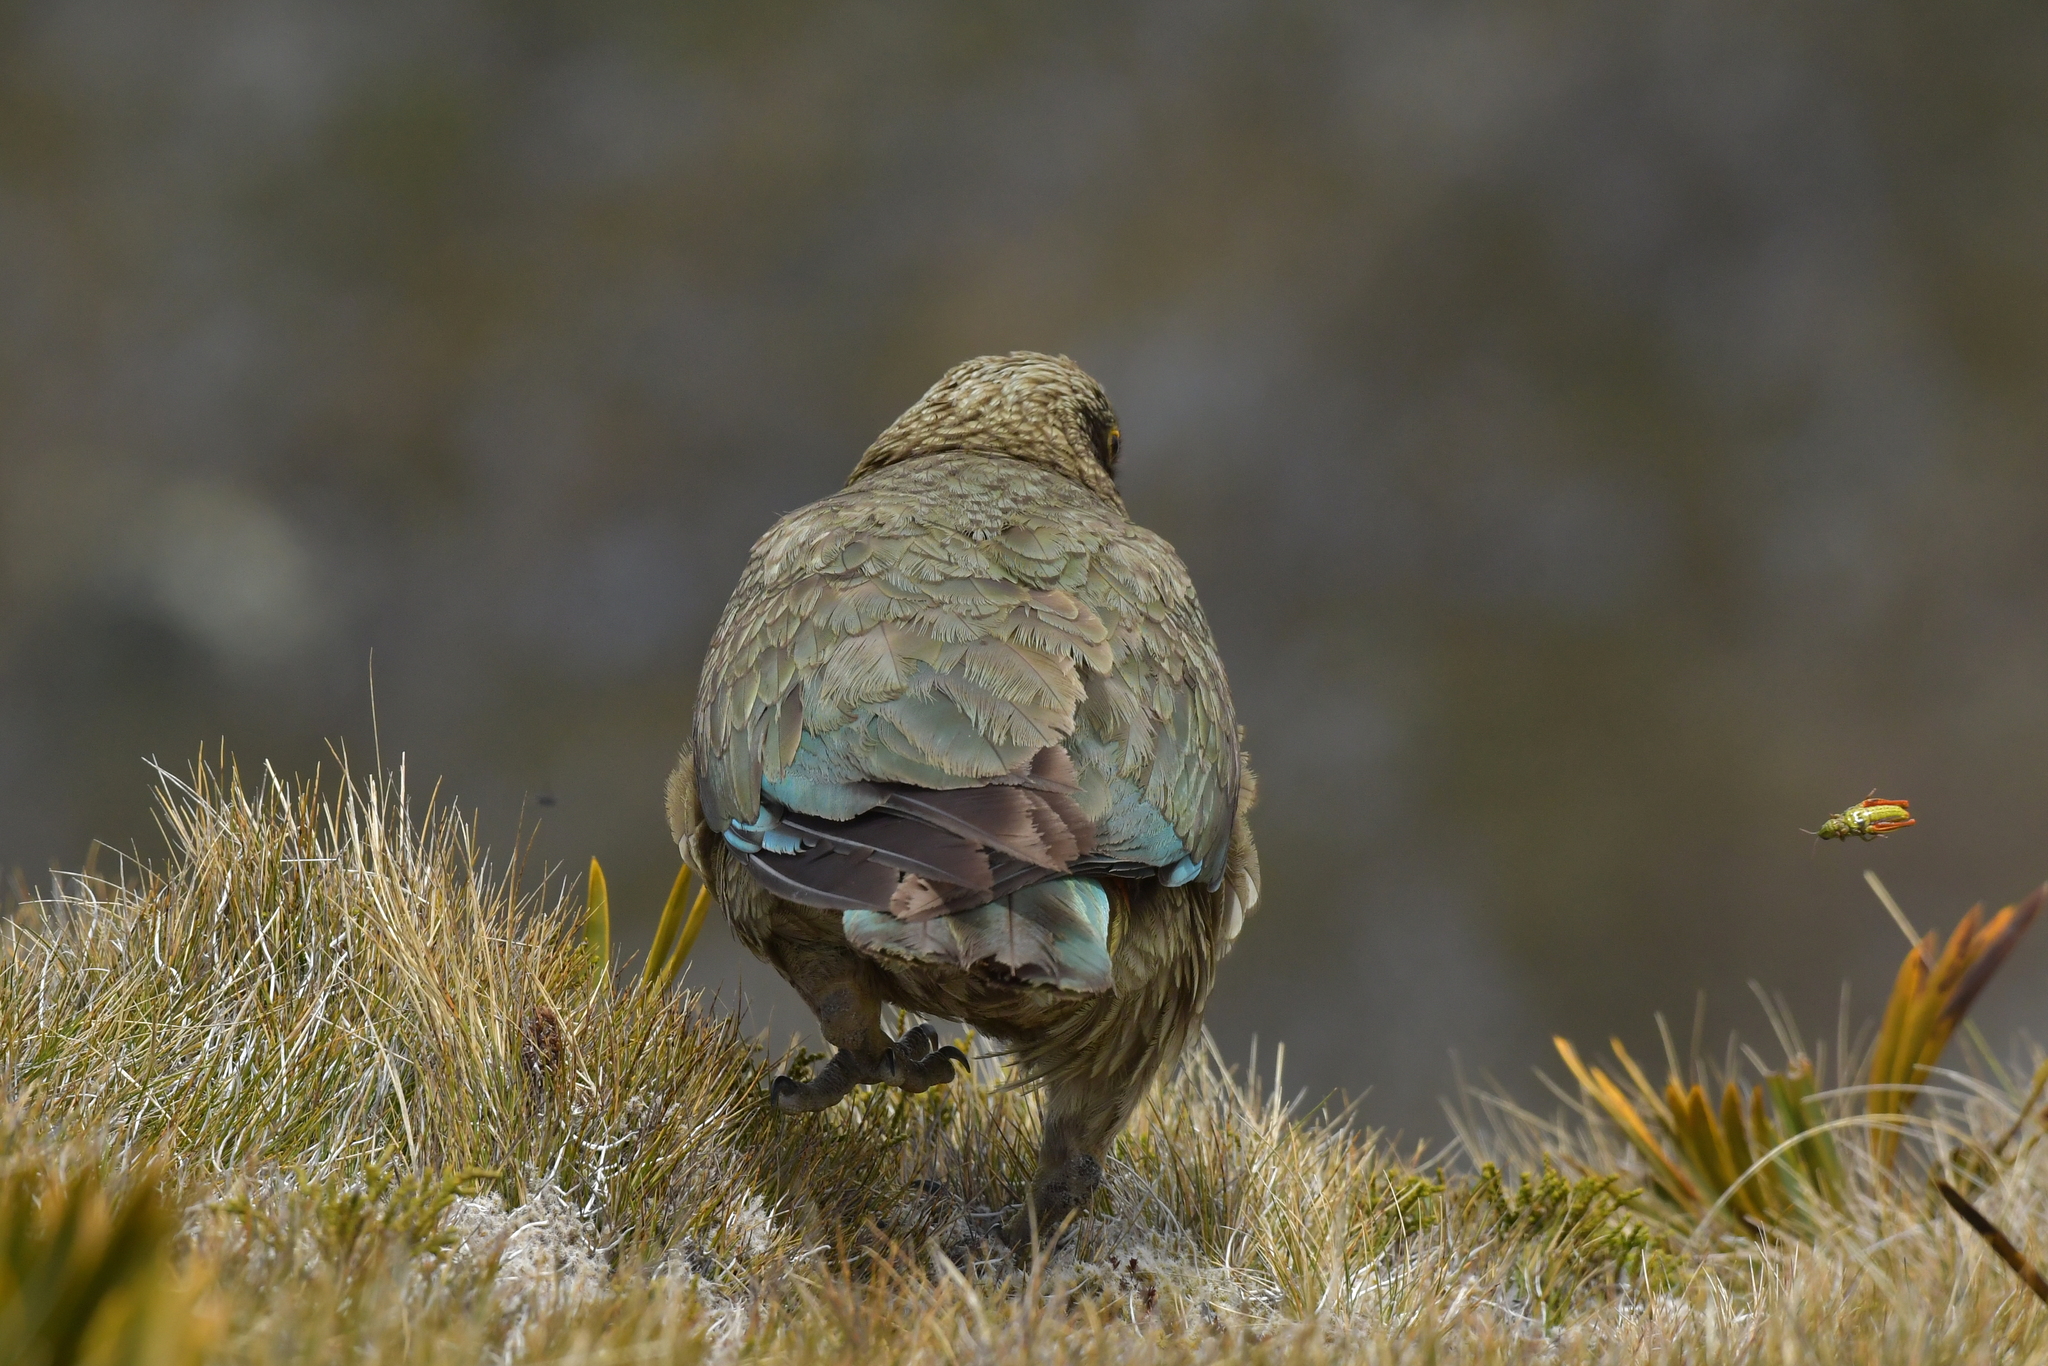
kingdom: Animalia
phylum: Chordata
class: Aves
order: Psittaciformes
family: Psittacidae
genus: Nestor
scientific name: Nestor notabilis
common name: Kea
